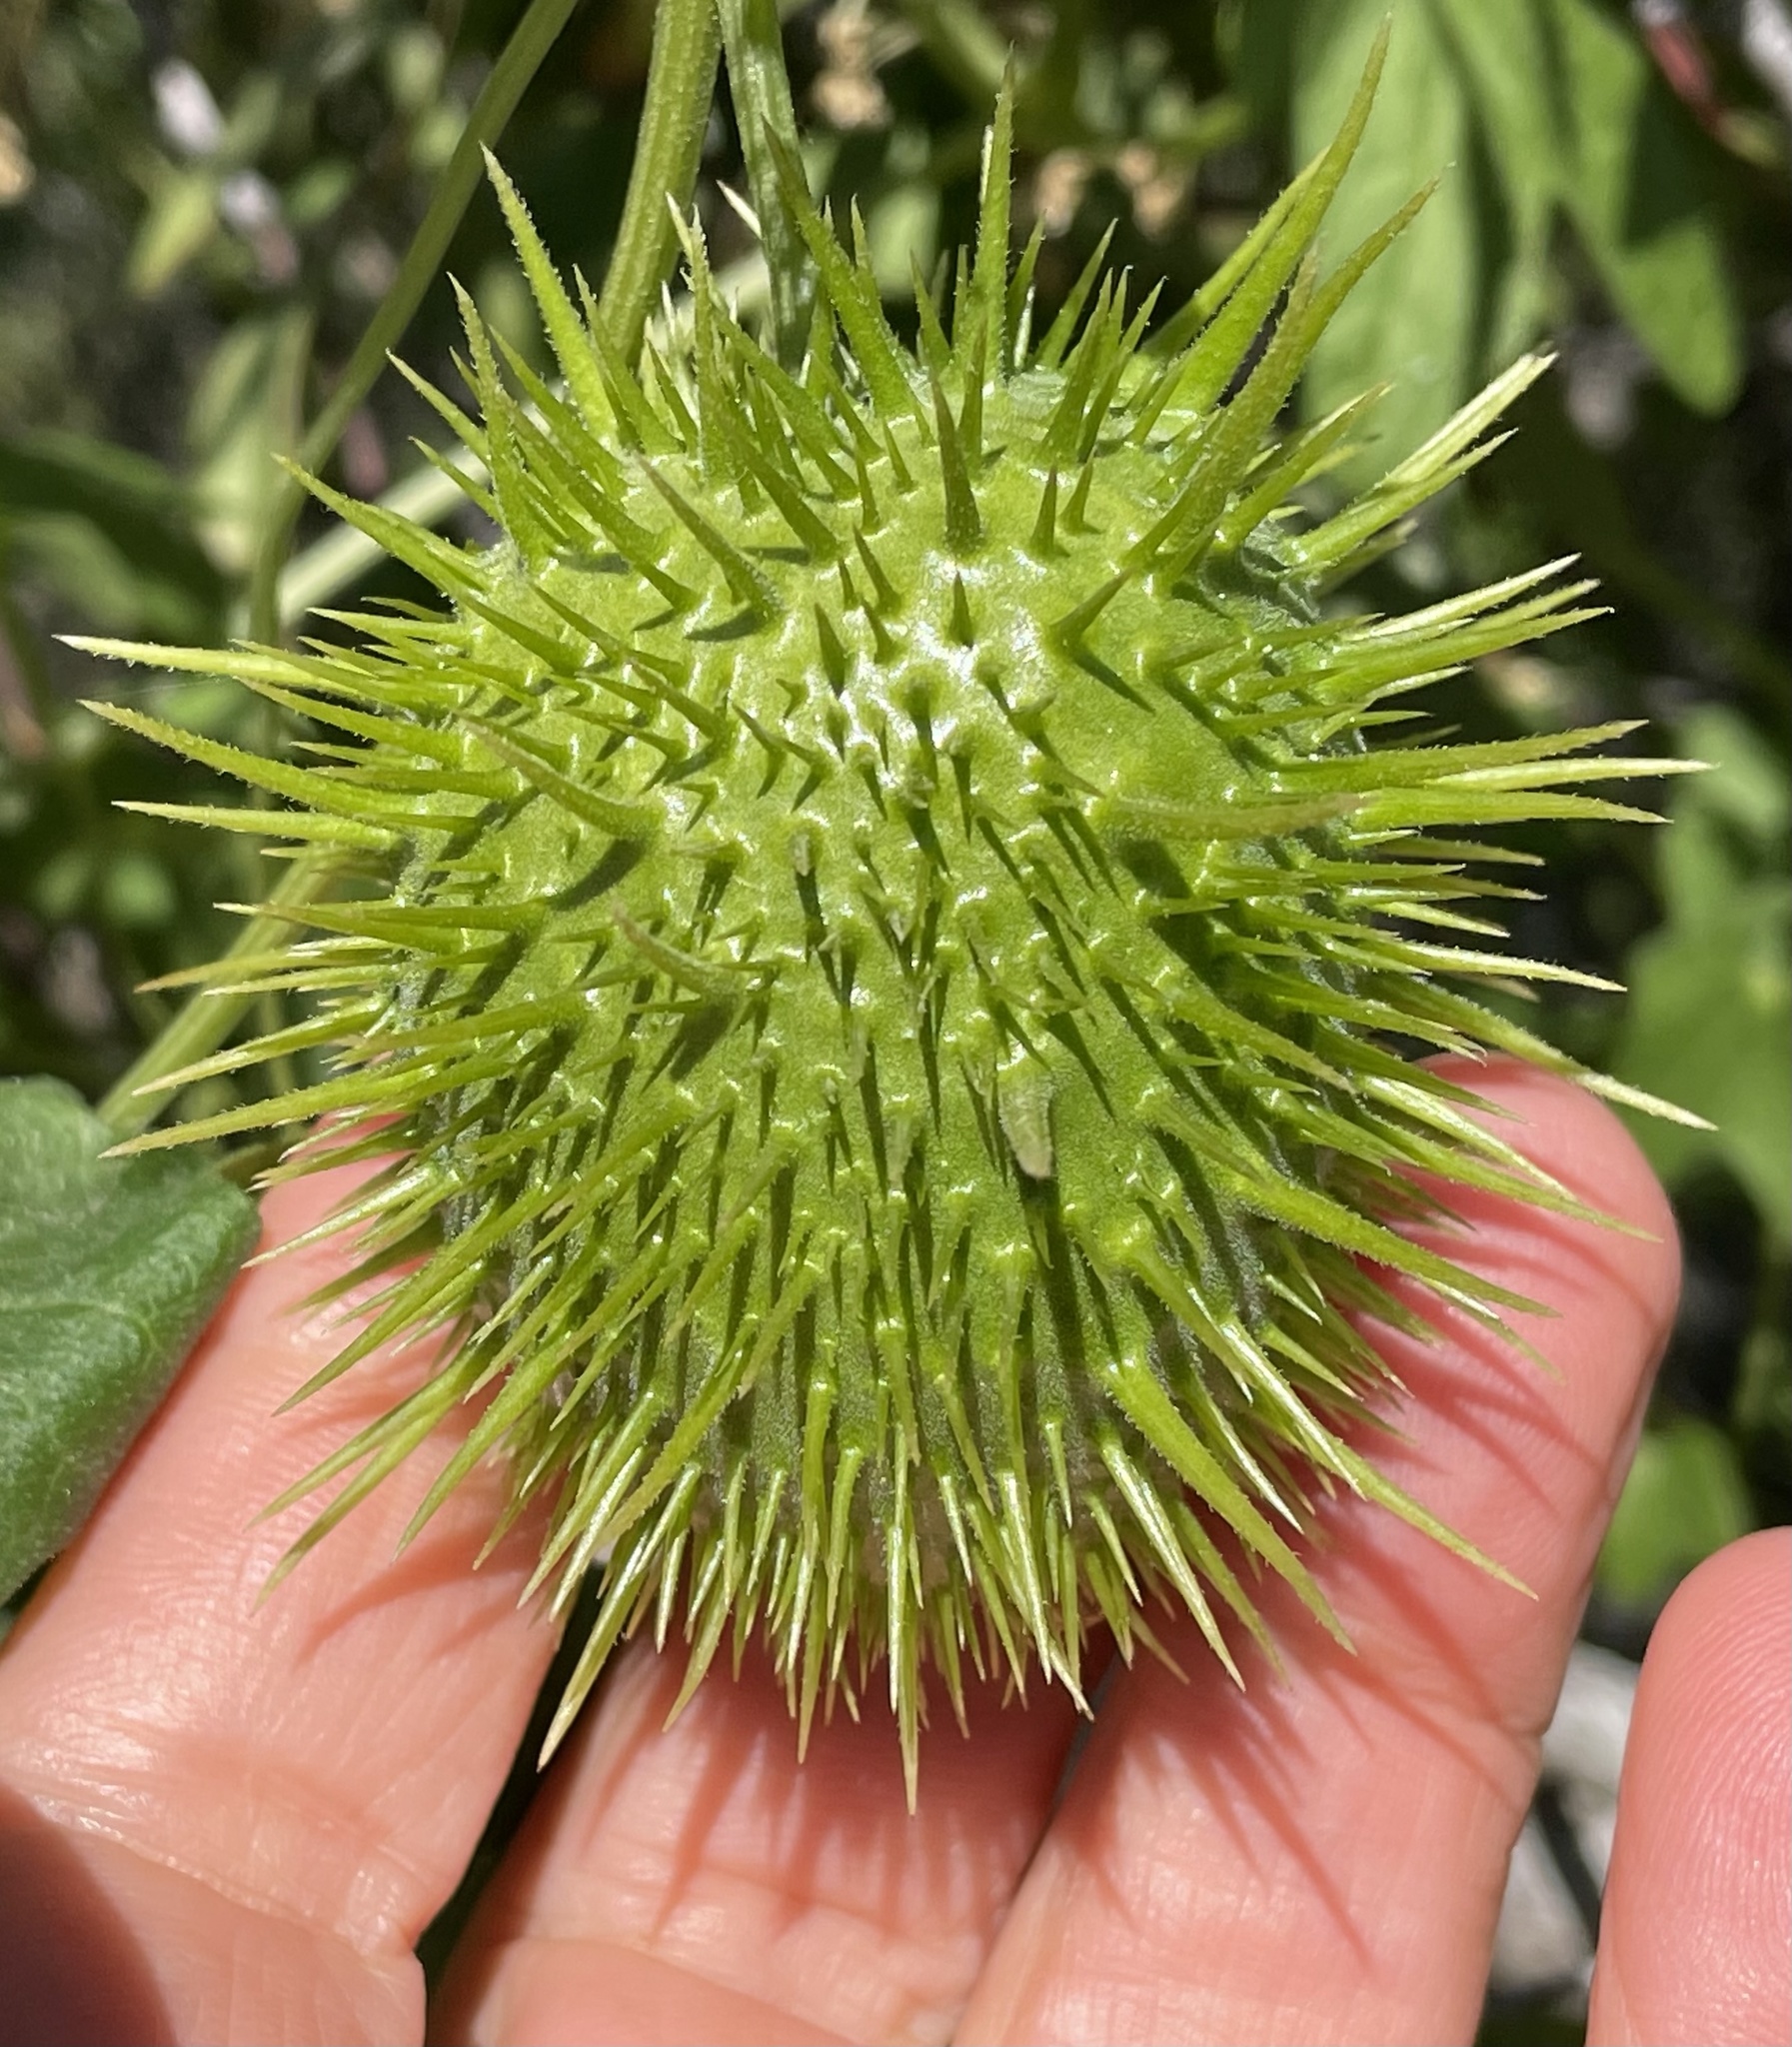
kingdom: Plantae
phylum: Tracheophyta
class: Magnoliopsida
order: Cucurbitales
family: Cucurbitaceae
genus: Marah
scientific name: Marah macrocarpa
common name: Cucamonga manroot
